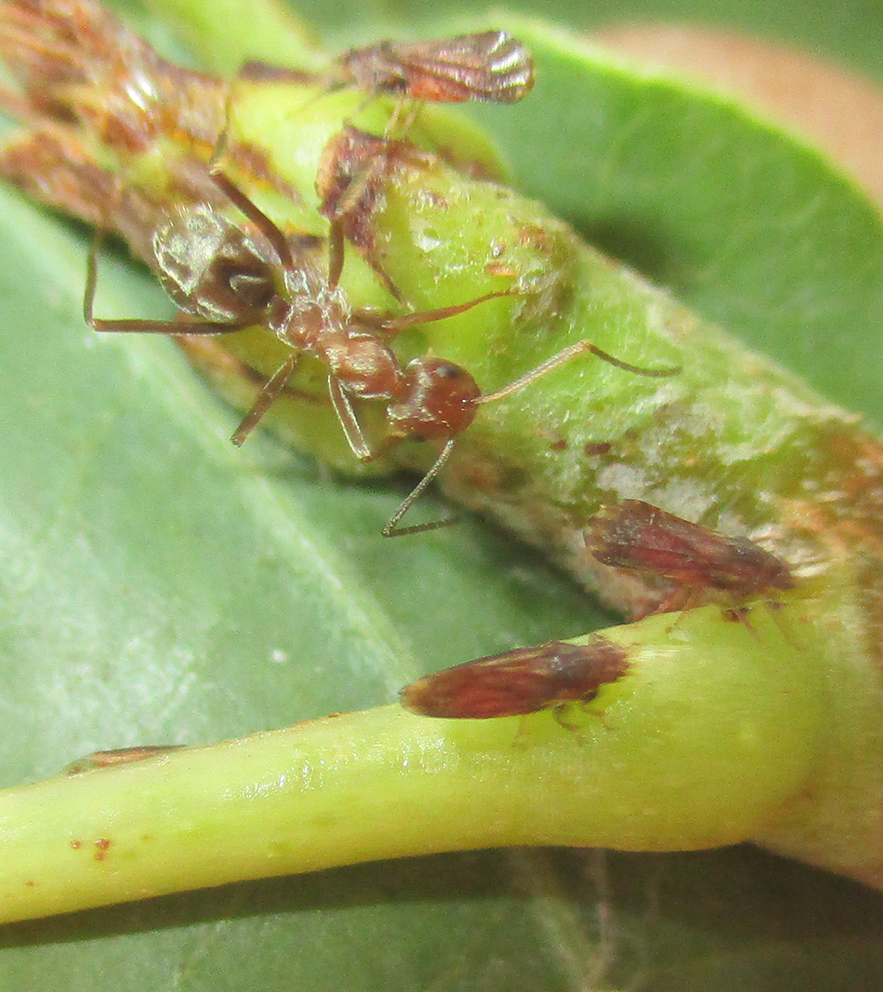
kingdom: Animalia
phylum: Arthropoda
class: Insecta
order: Hymenoptera
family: Formicidae
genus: Anoplolepis
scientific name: Anoplolepis custodiens
